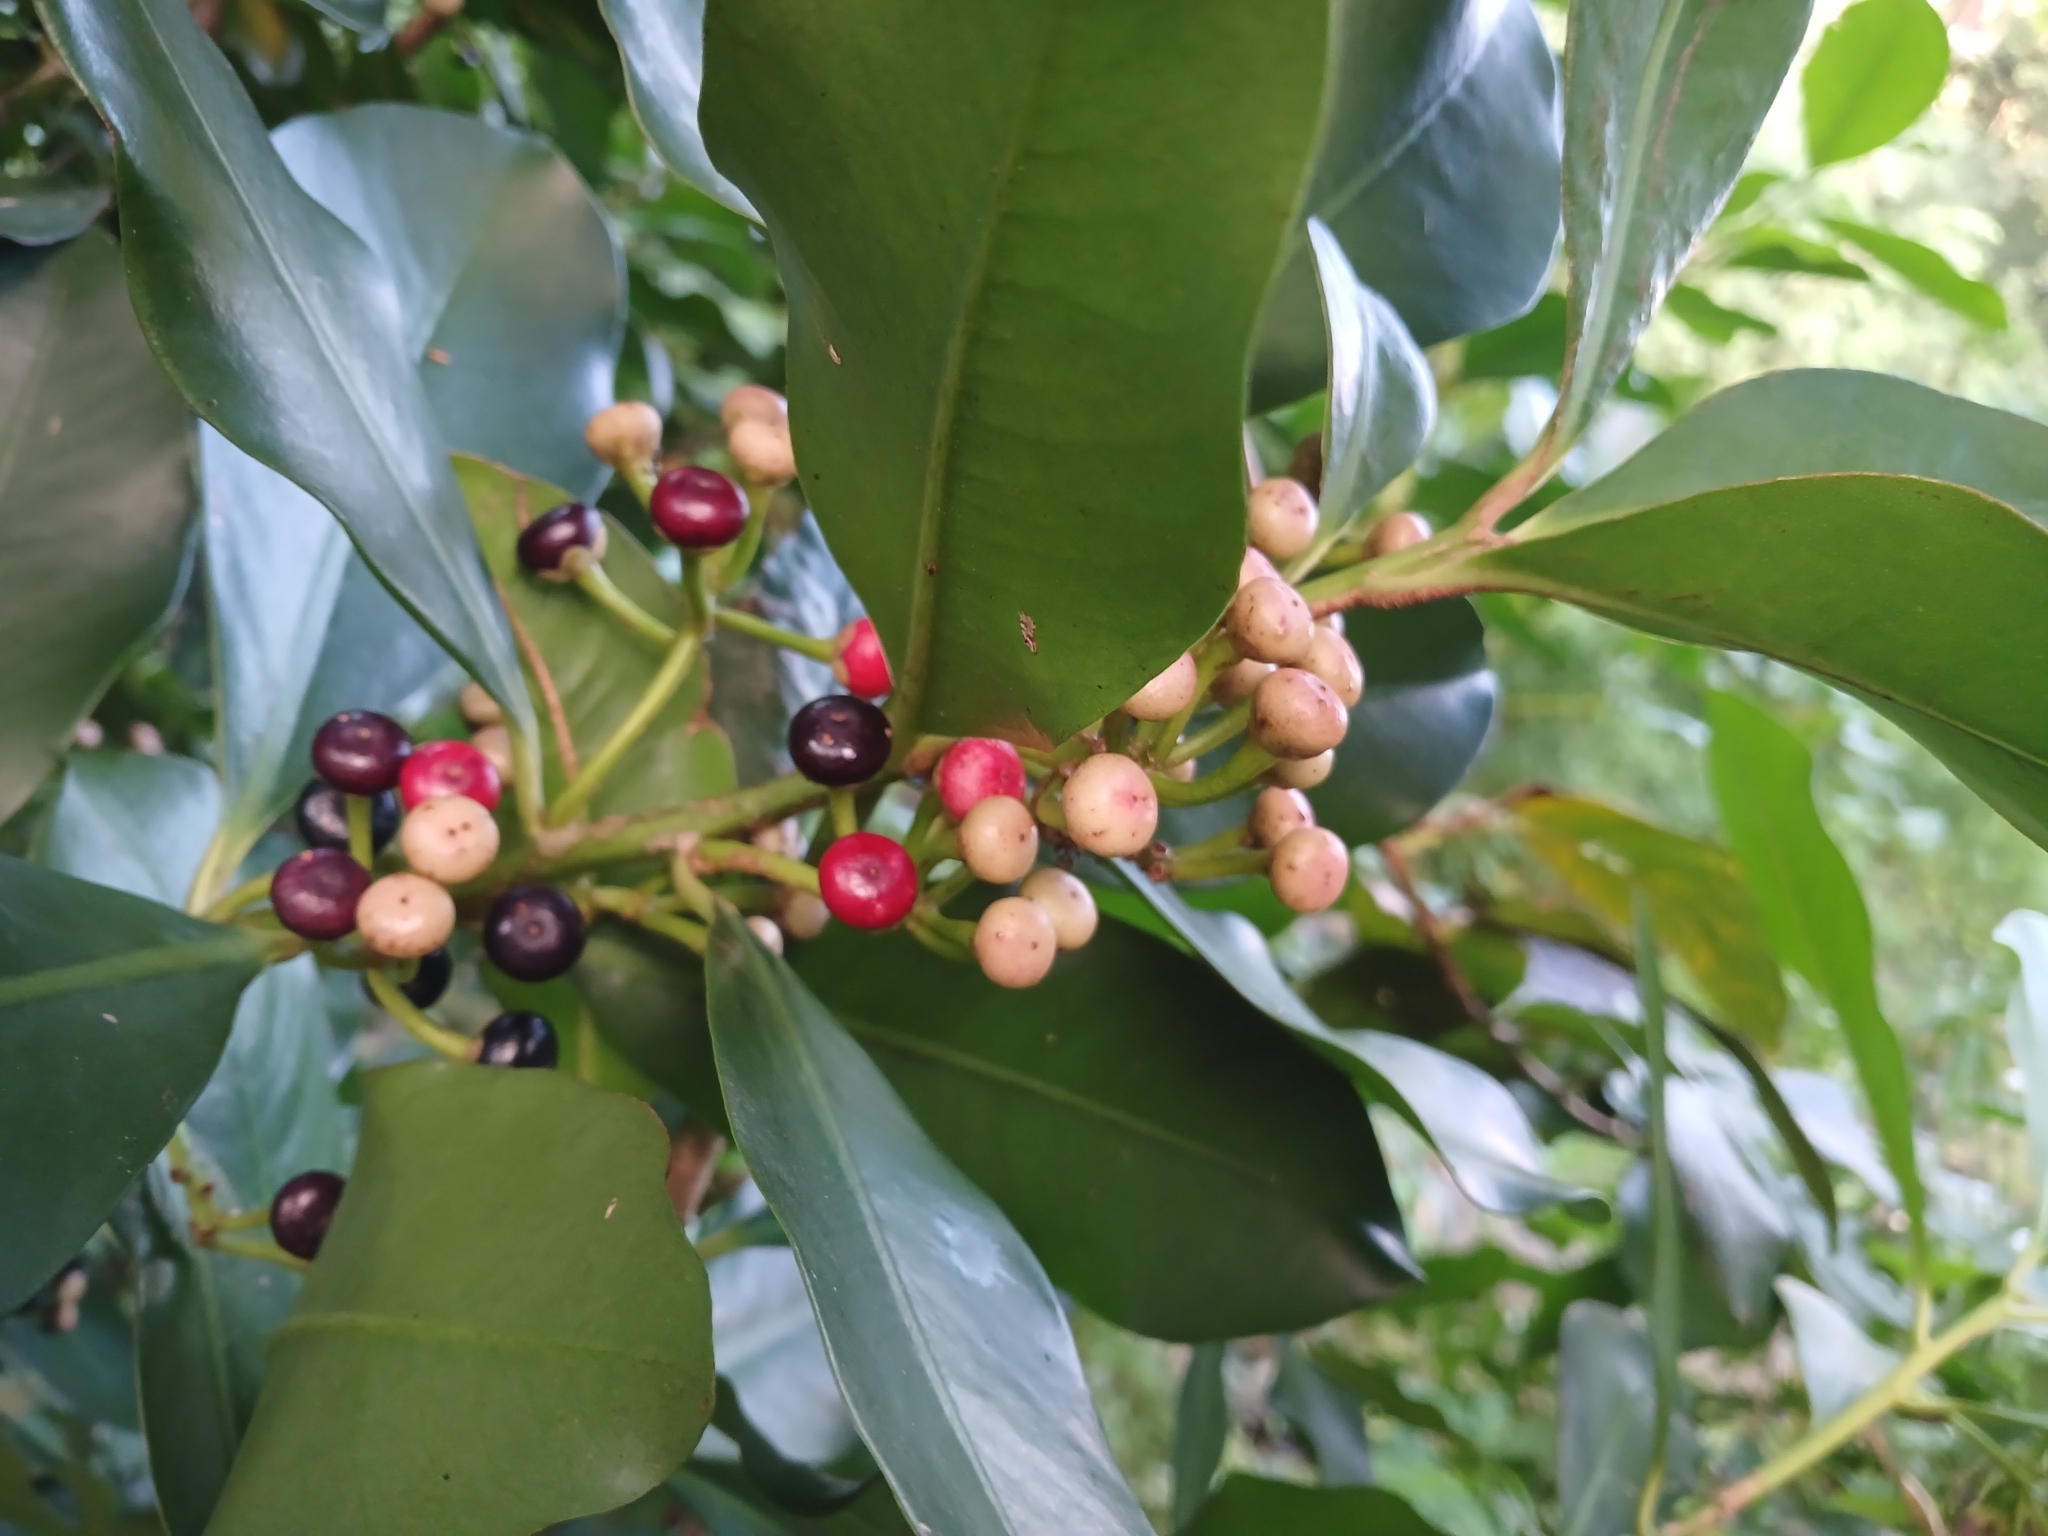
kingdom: Plantae
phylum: Tracheophyta
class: Magnoliopsida
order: Ericales
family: Primulaceae
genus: Ardisia
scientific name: Ardisia elliptica
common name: Shoebutton
